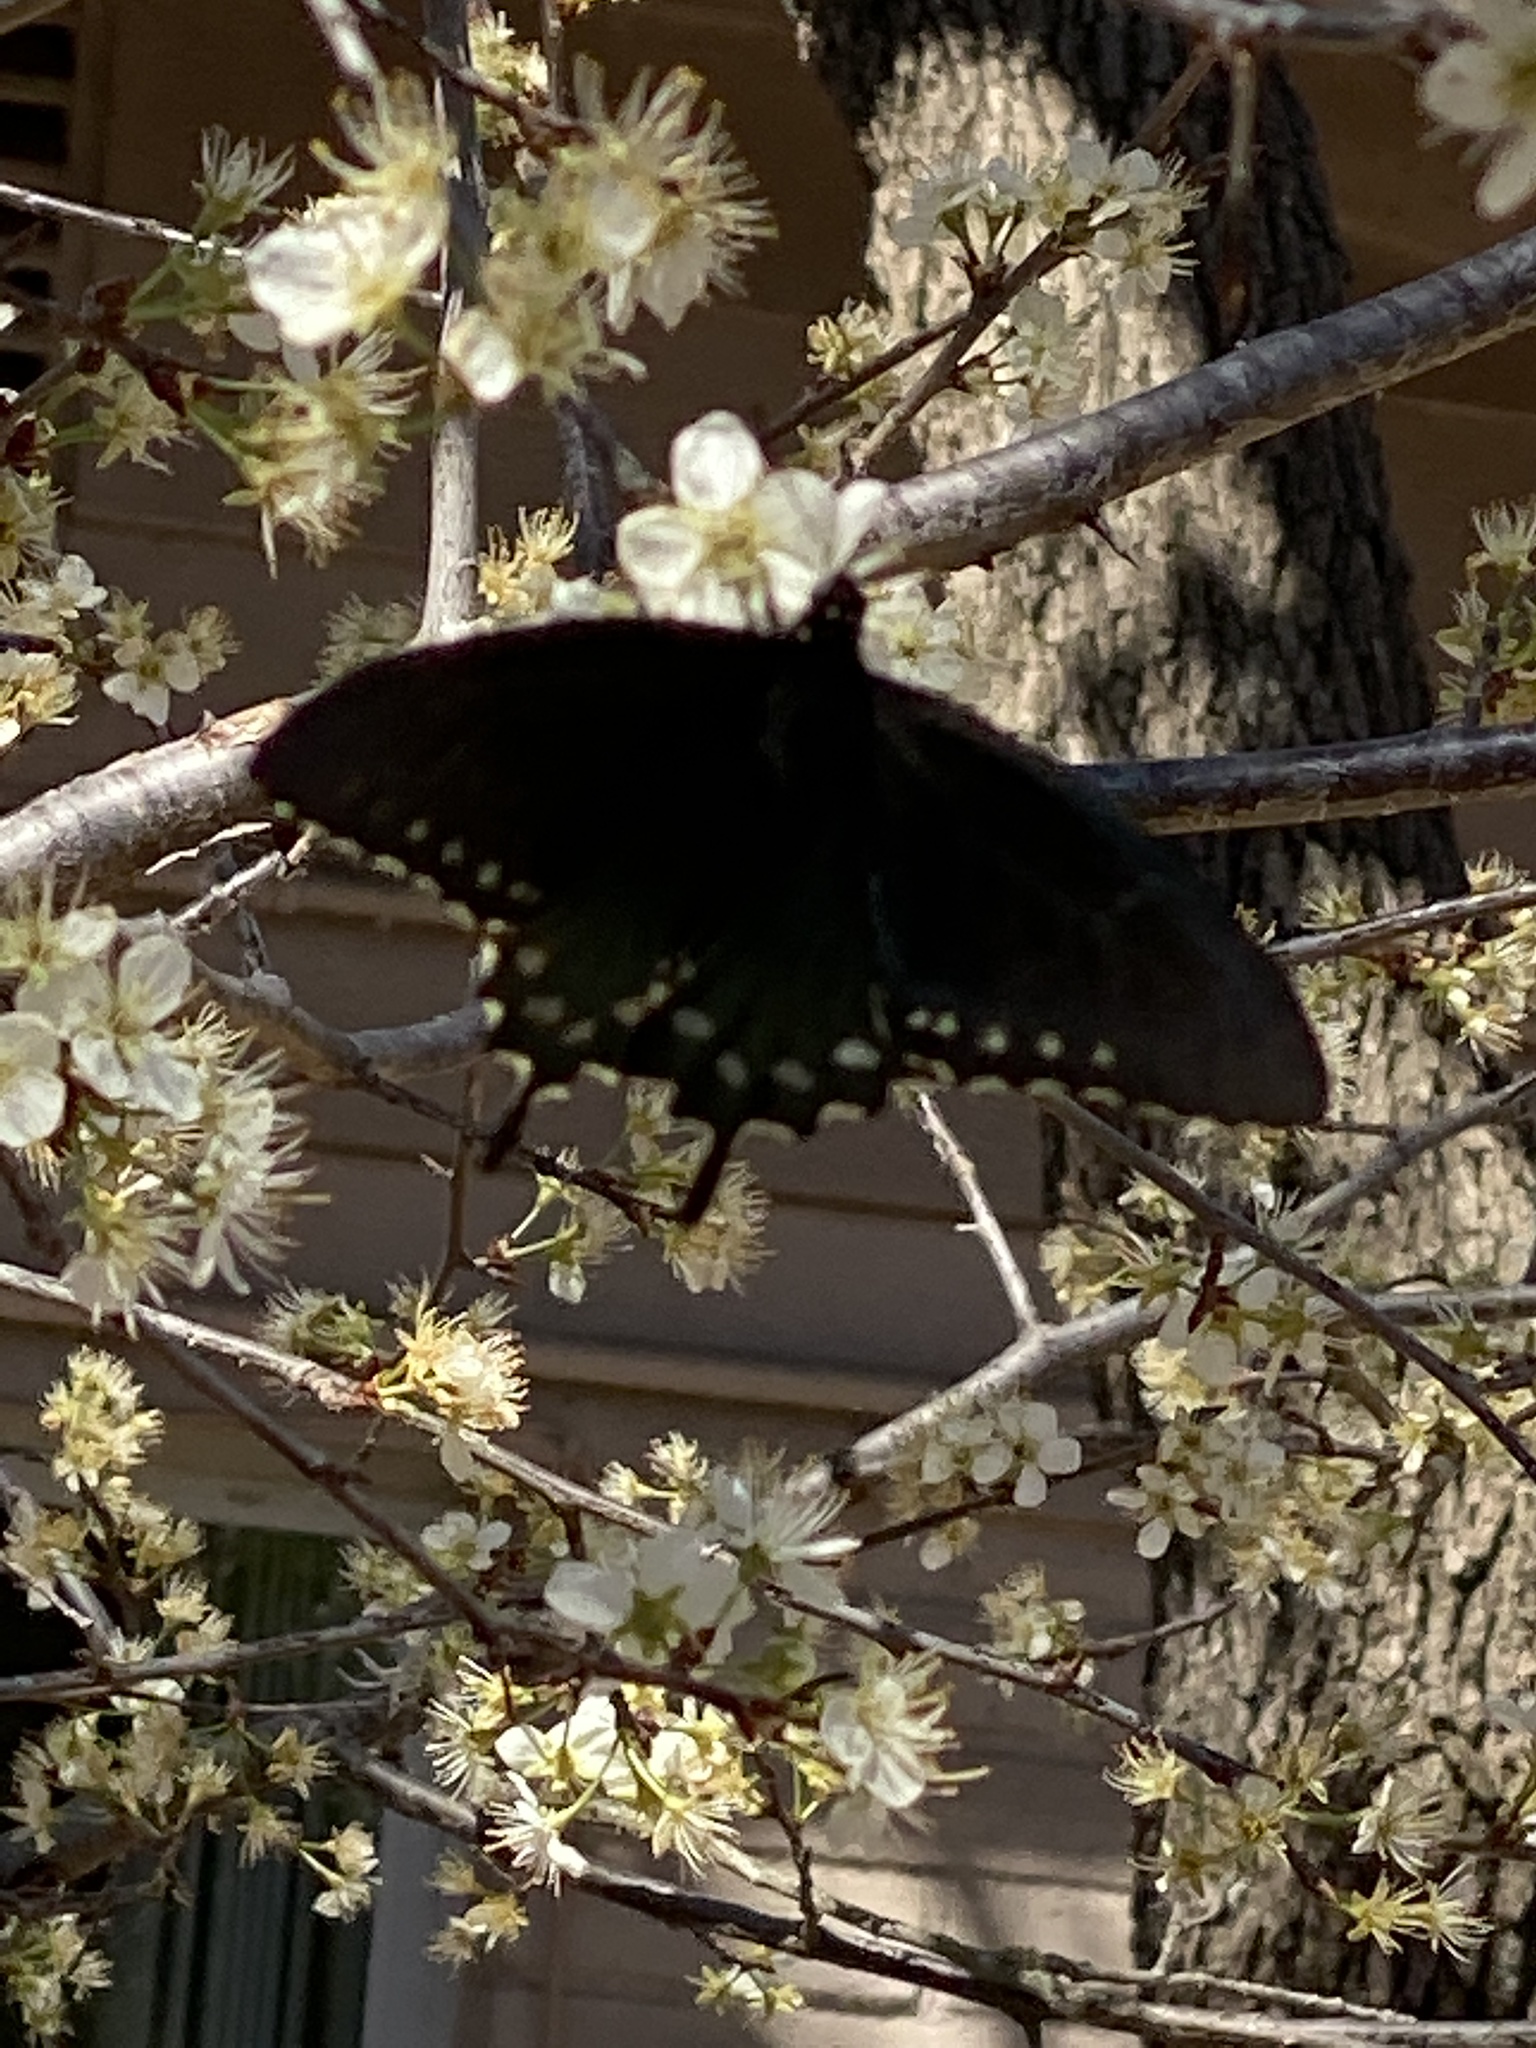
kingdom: Animalia
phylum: Arthropoda
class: Insecta
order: Lepidoptera
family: Papilionidae
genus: Battus
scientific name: Battus philenor
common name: Pipevine swallowtail
